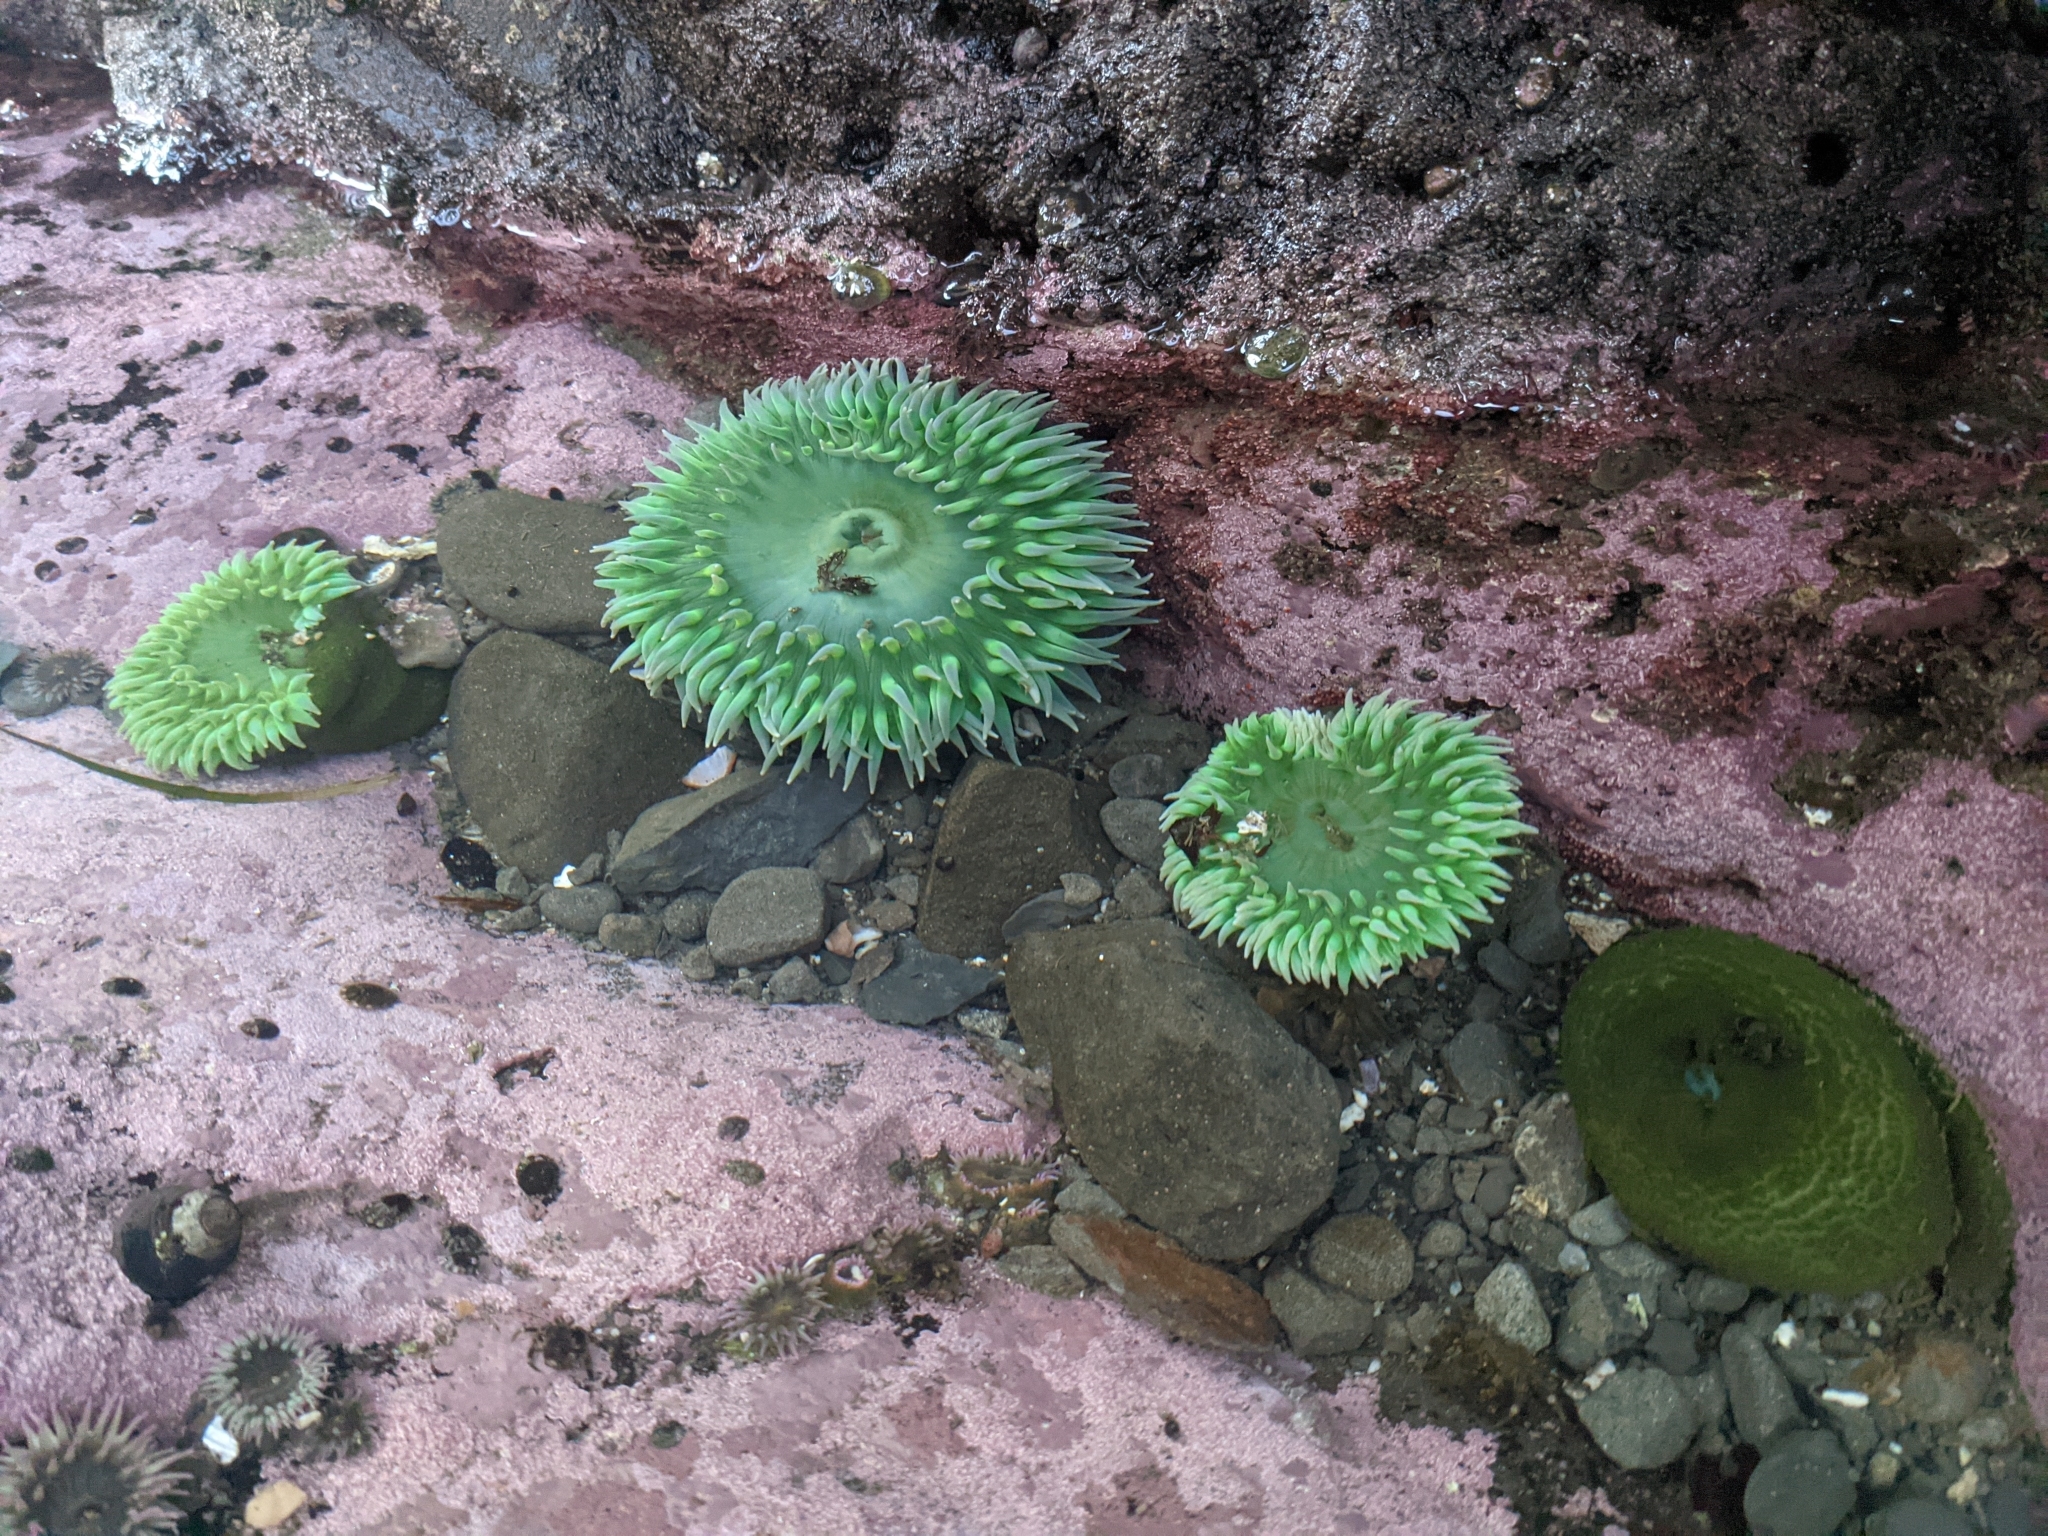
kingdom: Animalia
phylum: Cnidaria
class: Anthozoa
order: Actiniaria
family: Actiniidae
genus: Anthopleura
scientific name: Anthopleura xanthogrammica
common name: Giant green anemone
